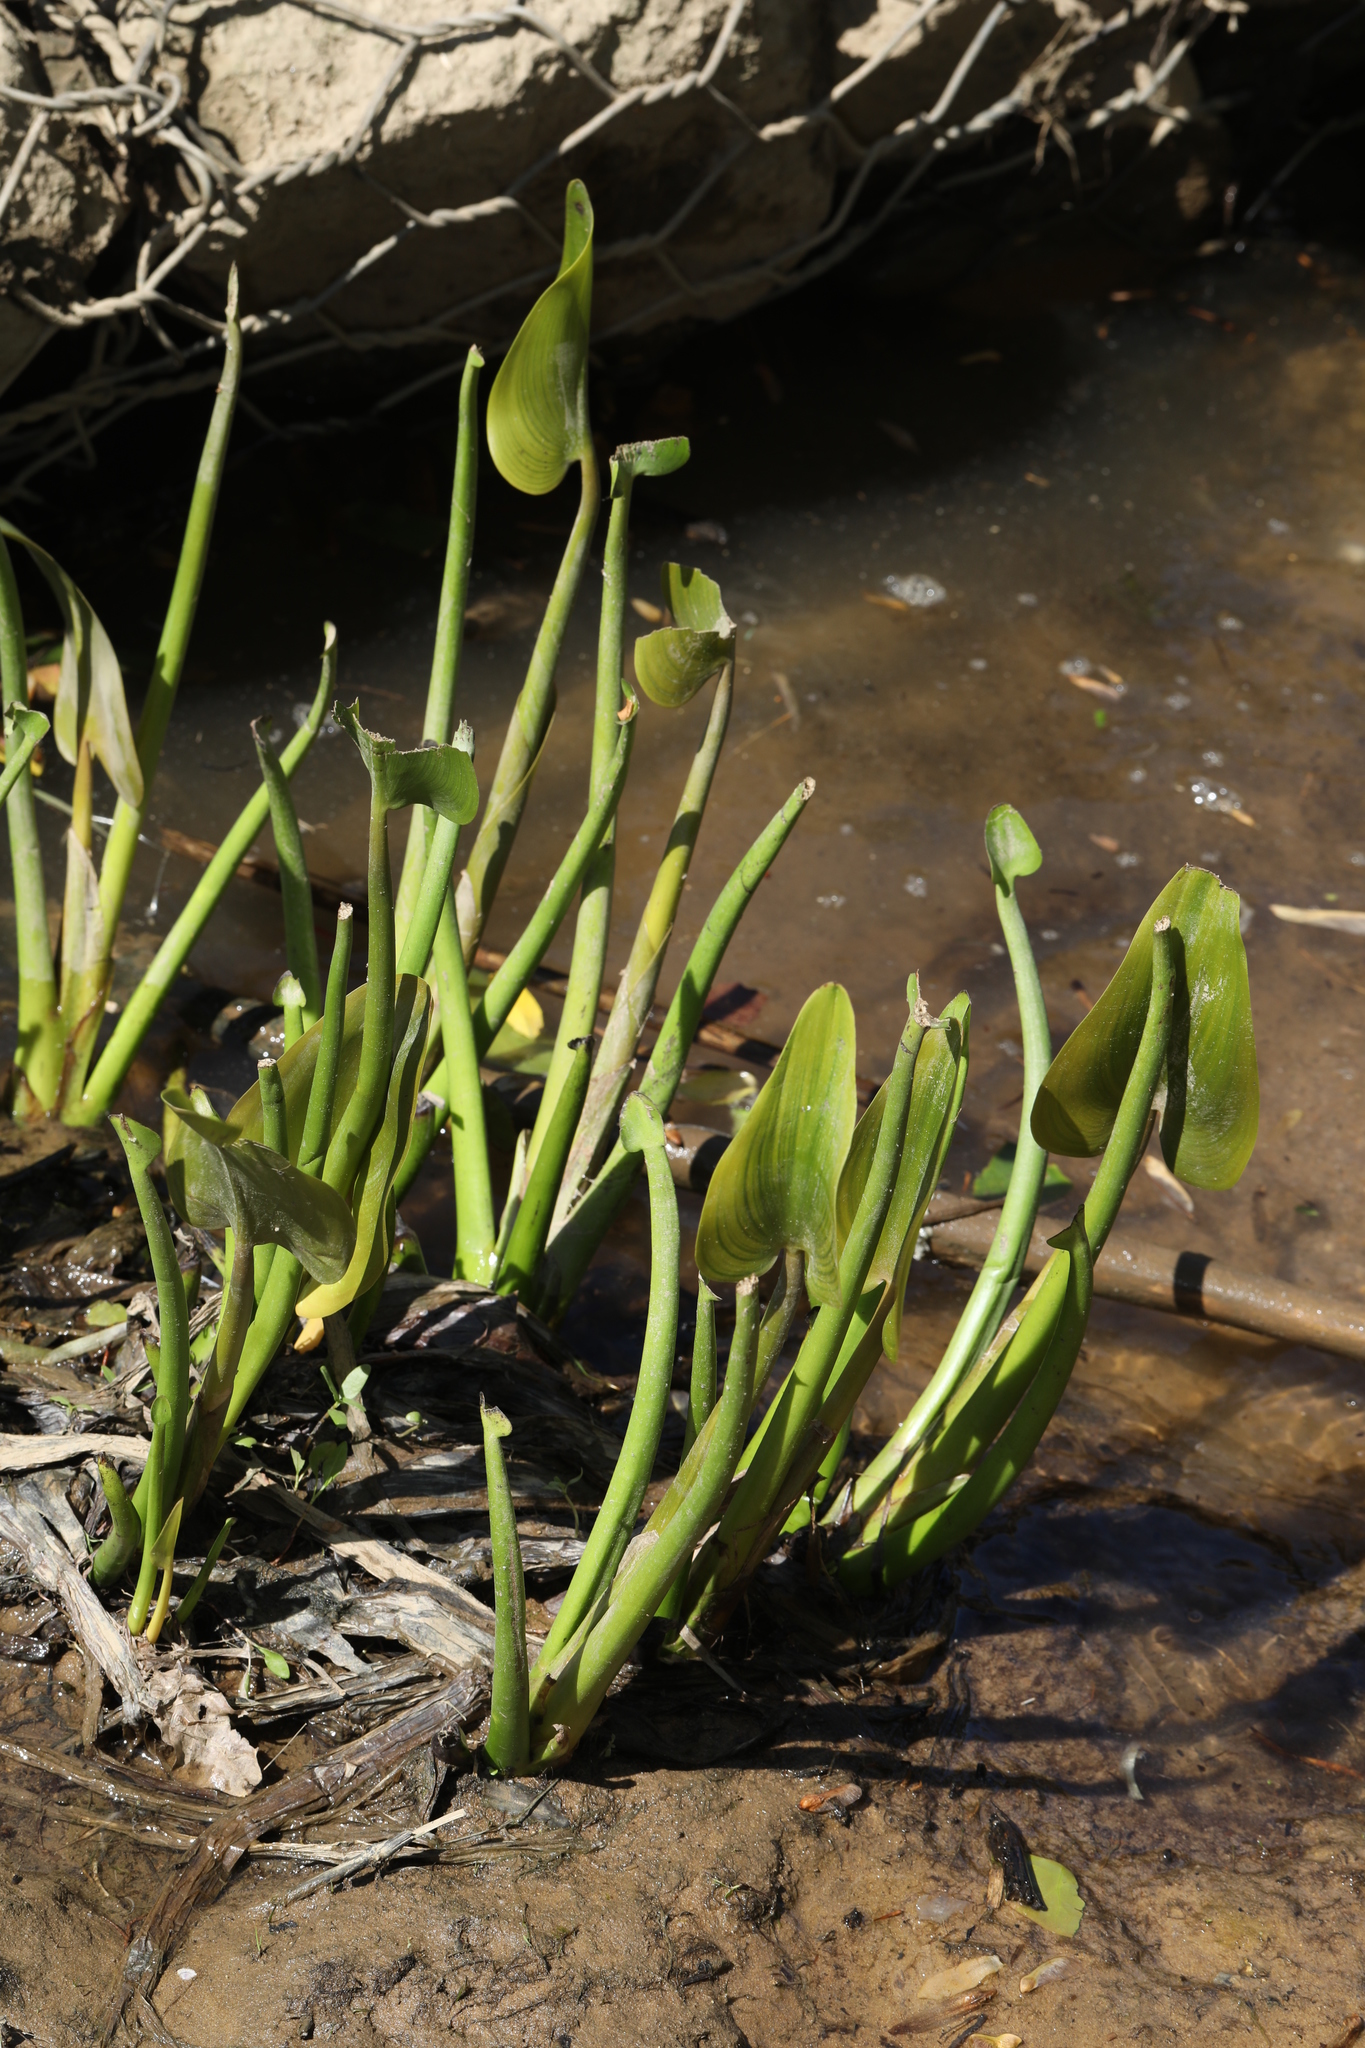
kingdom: Plantae
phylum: Tracheophyta
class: Liliopsida
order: Commelinales
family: Pontederiaceae
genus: Pontederia
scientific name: Pontederia cordata
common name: Pickerelweed
